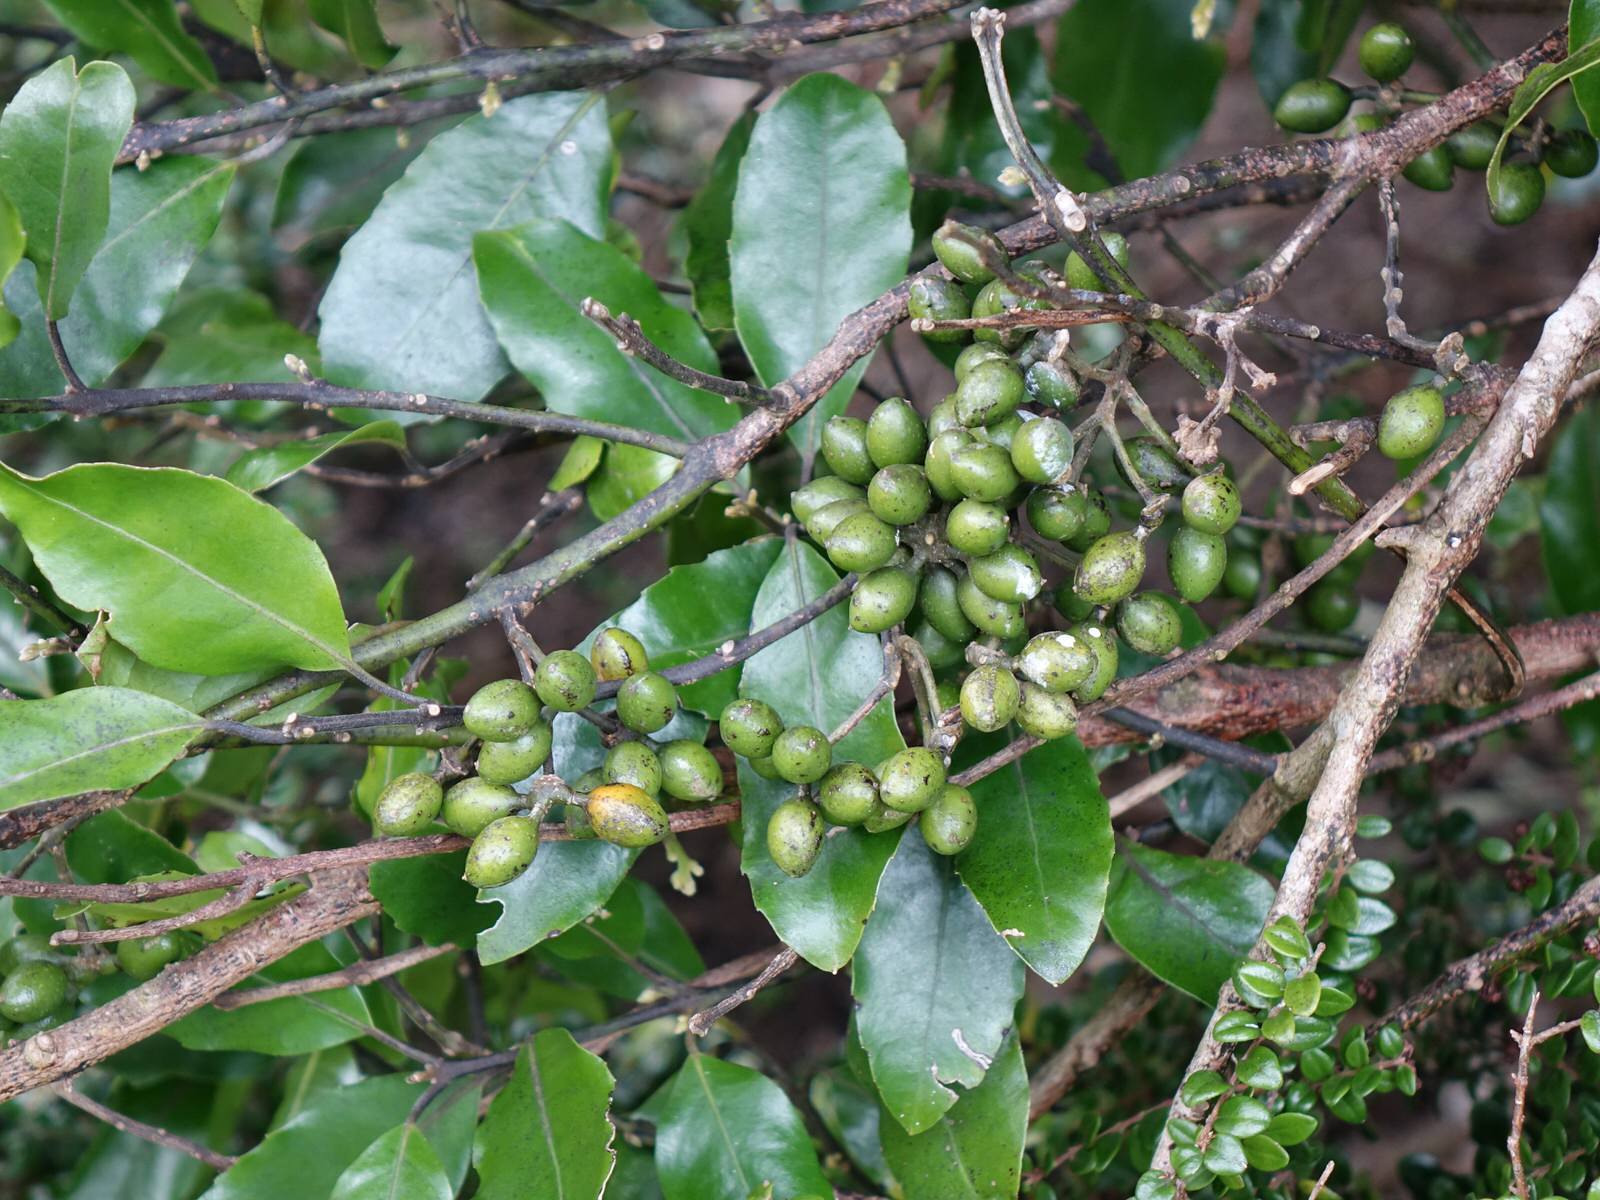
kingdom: Plantae
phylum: Tracheophyta
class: Magnoliopsida
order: Laurales
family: Monimiaceae
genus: Hedycarya
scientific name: Hedycarya arborea
